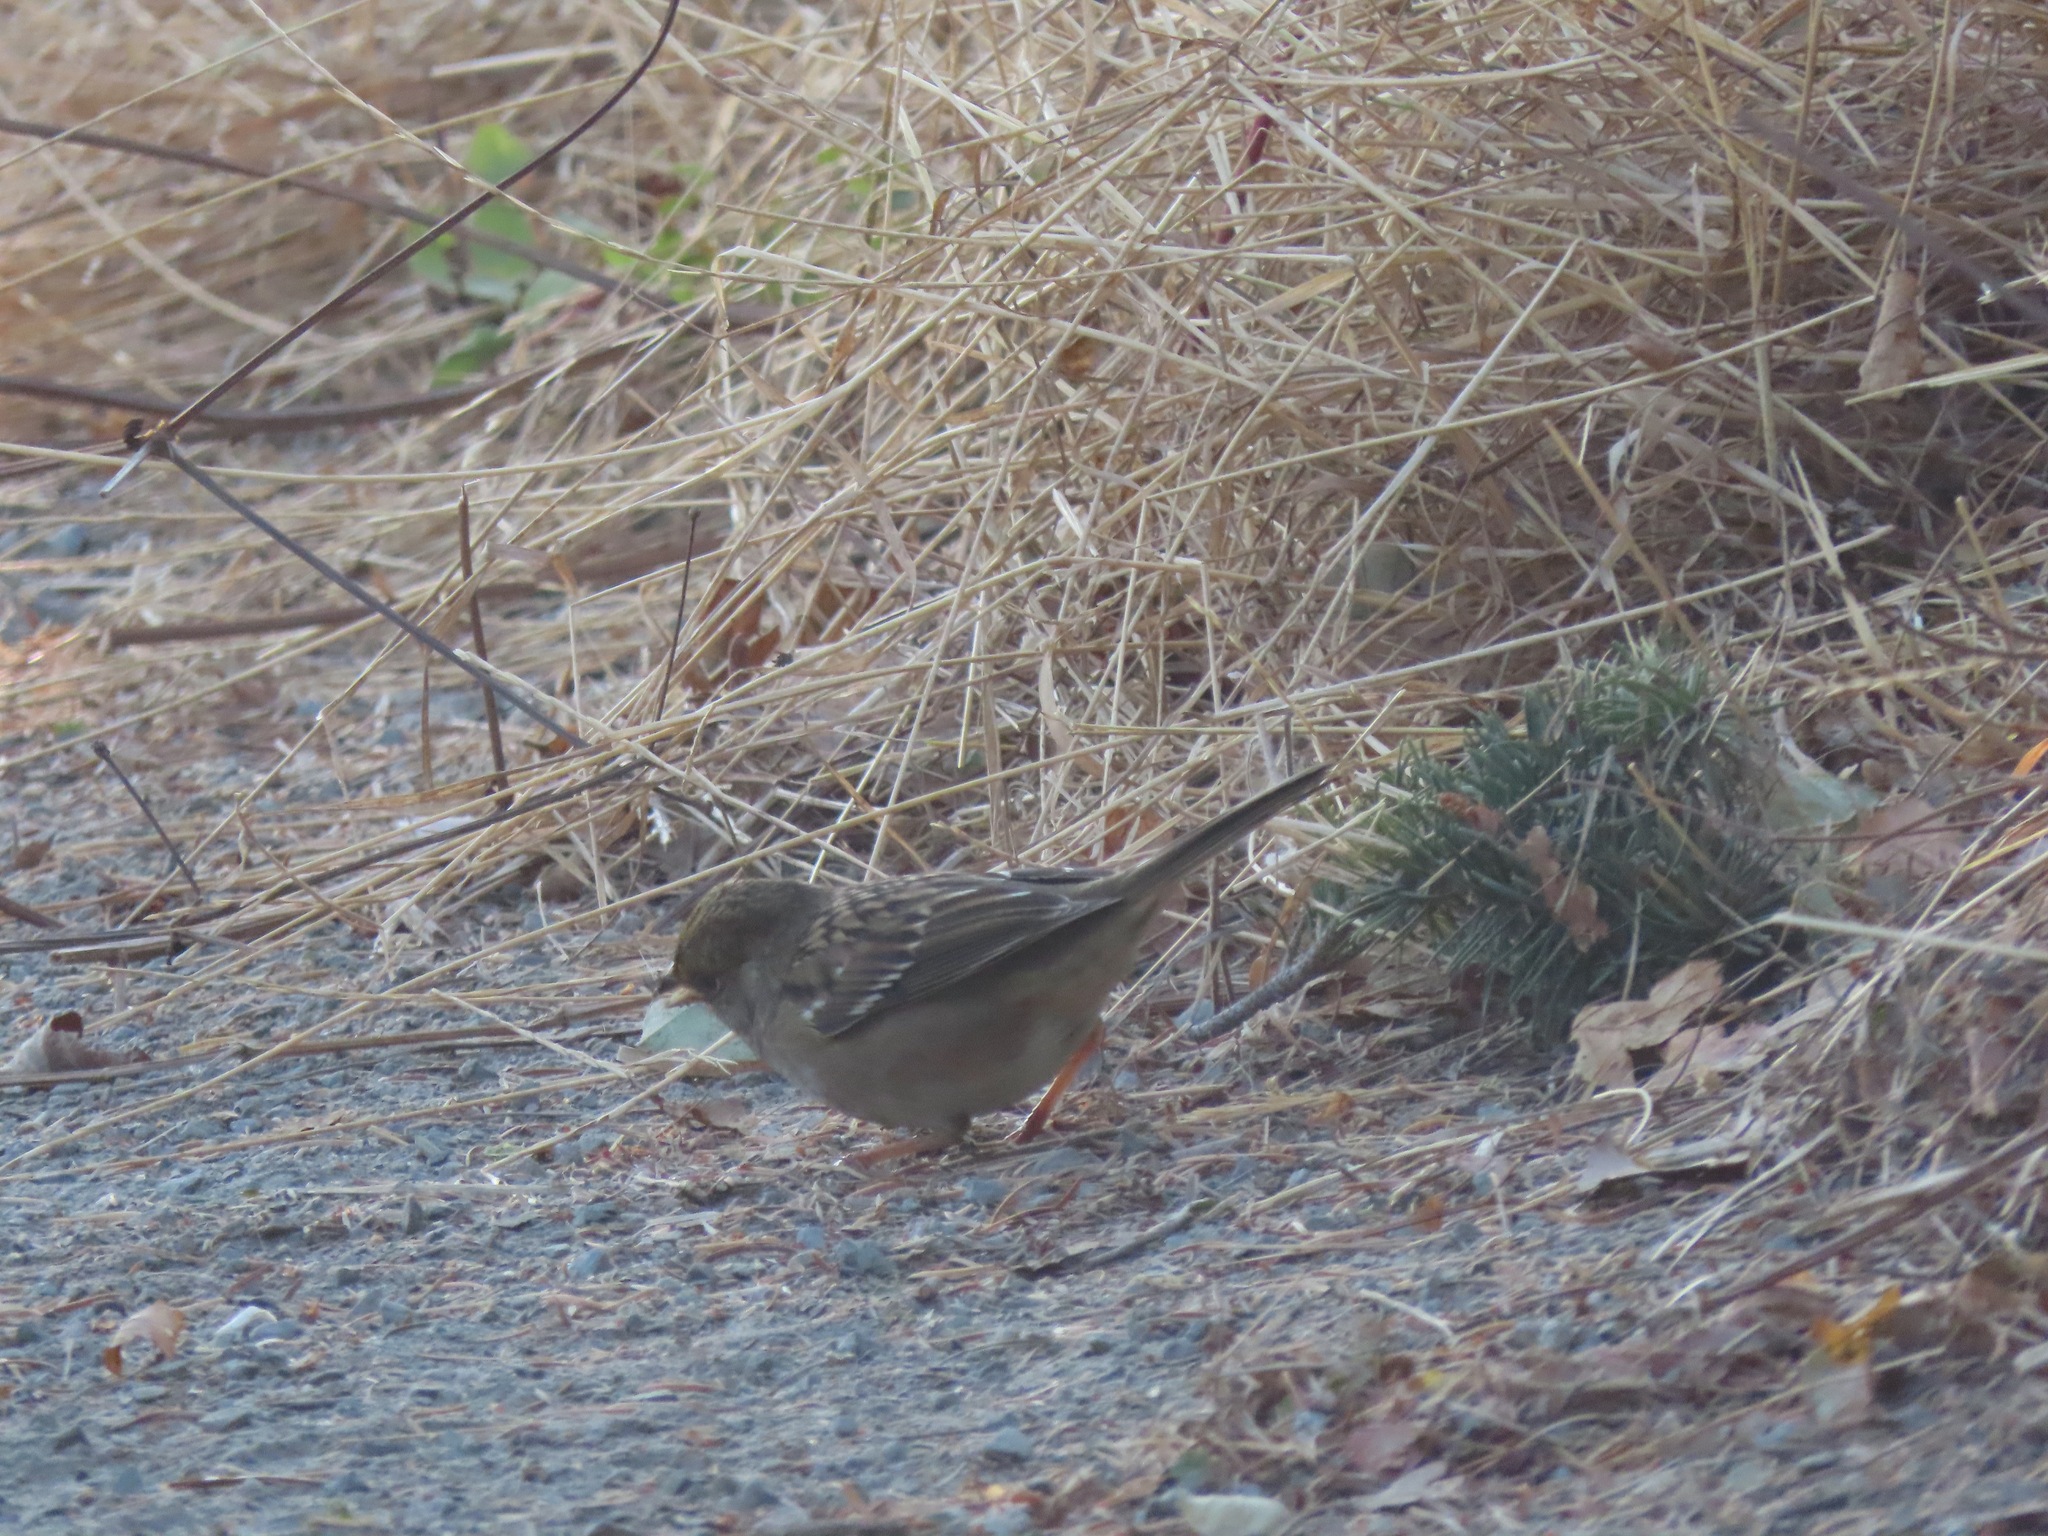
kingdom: Animalia
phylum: Chordata
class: Aves
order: Passeriformes
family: Passerellidae
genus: Zonotrichia
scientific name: Zonotrichia atricapilla
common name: Golden-crowned sparrow
